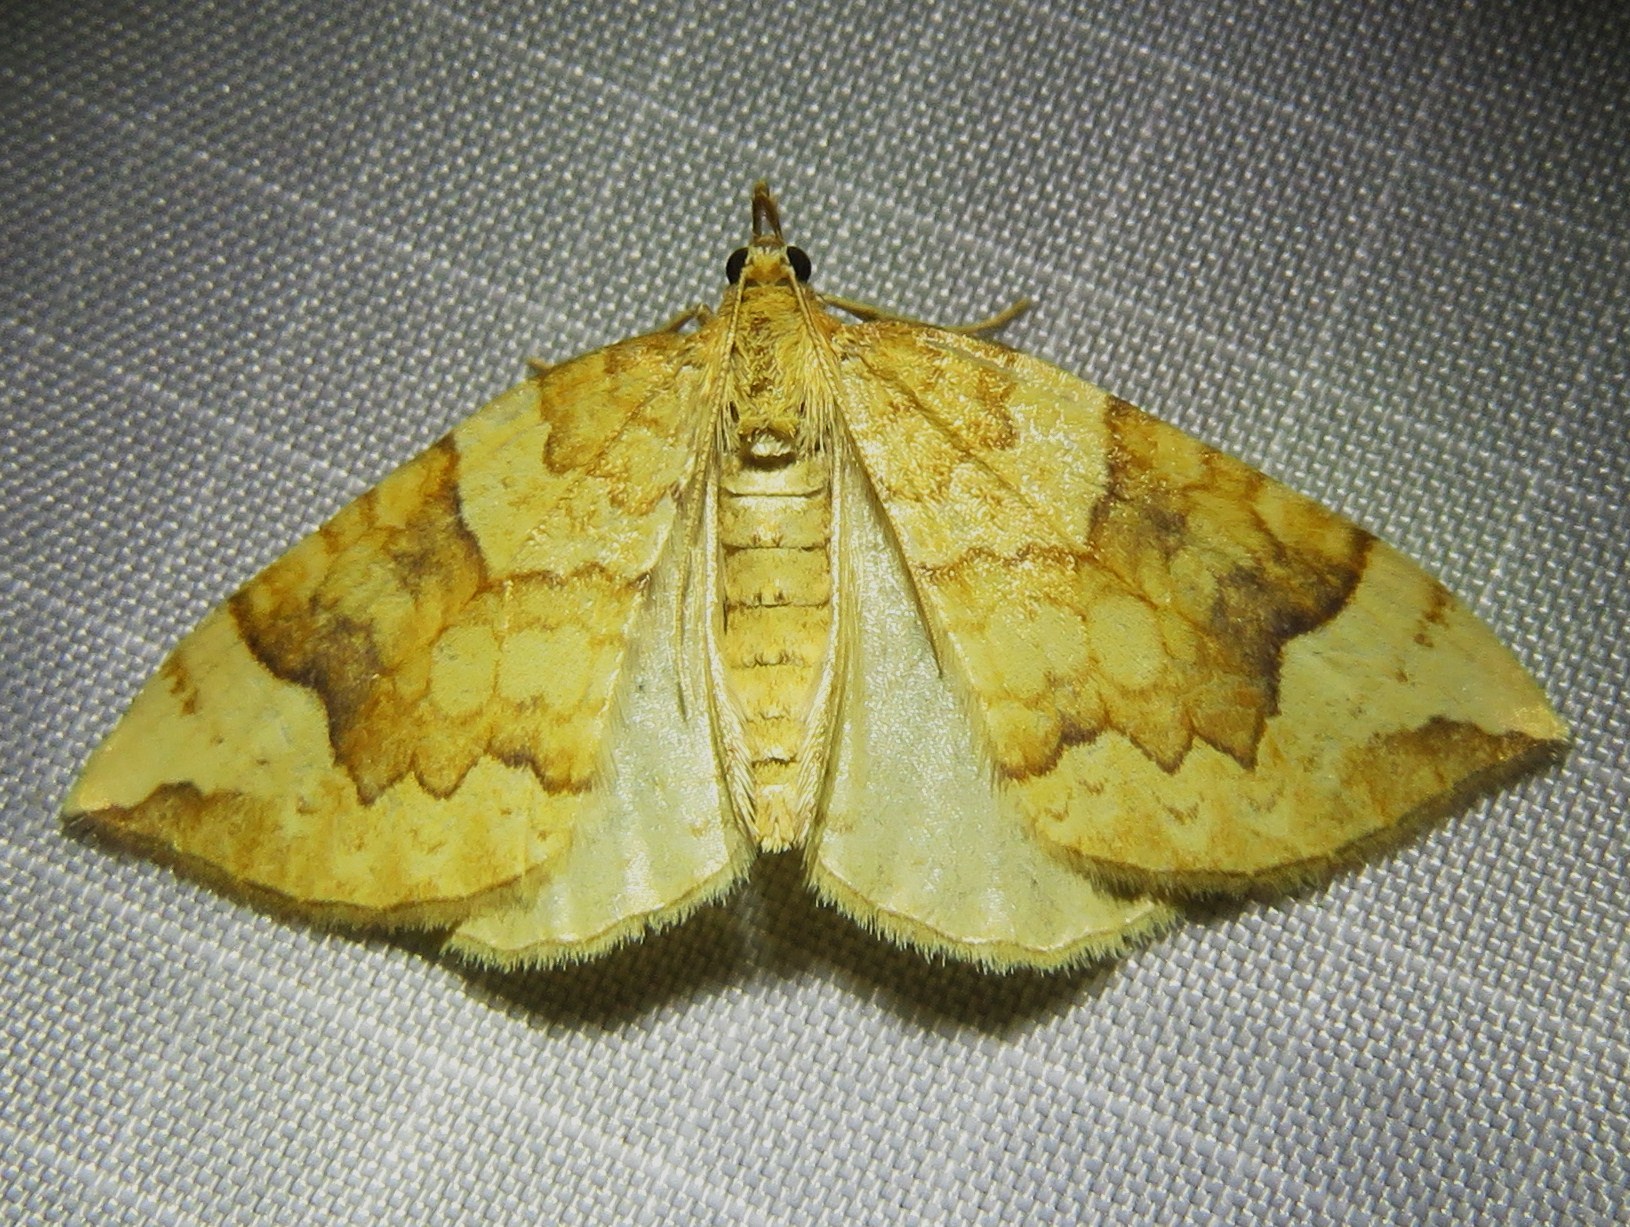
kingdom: Animalia
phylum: Arthropoda
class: Insecta
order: Lepidoptera
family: Geometridae
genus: Eulithis
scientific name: Eulithis populata
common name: Northern spinach
